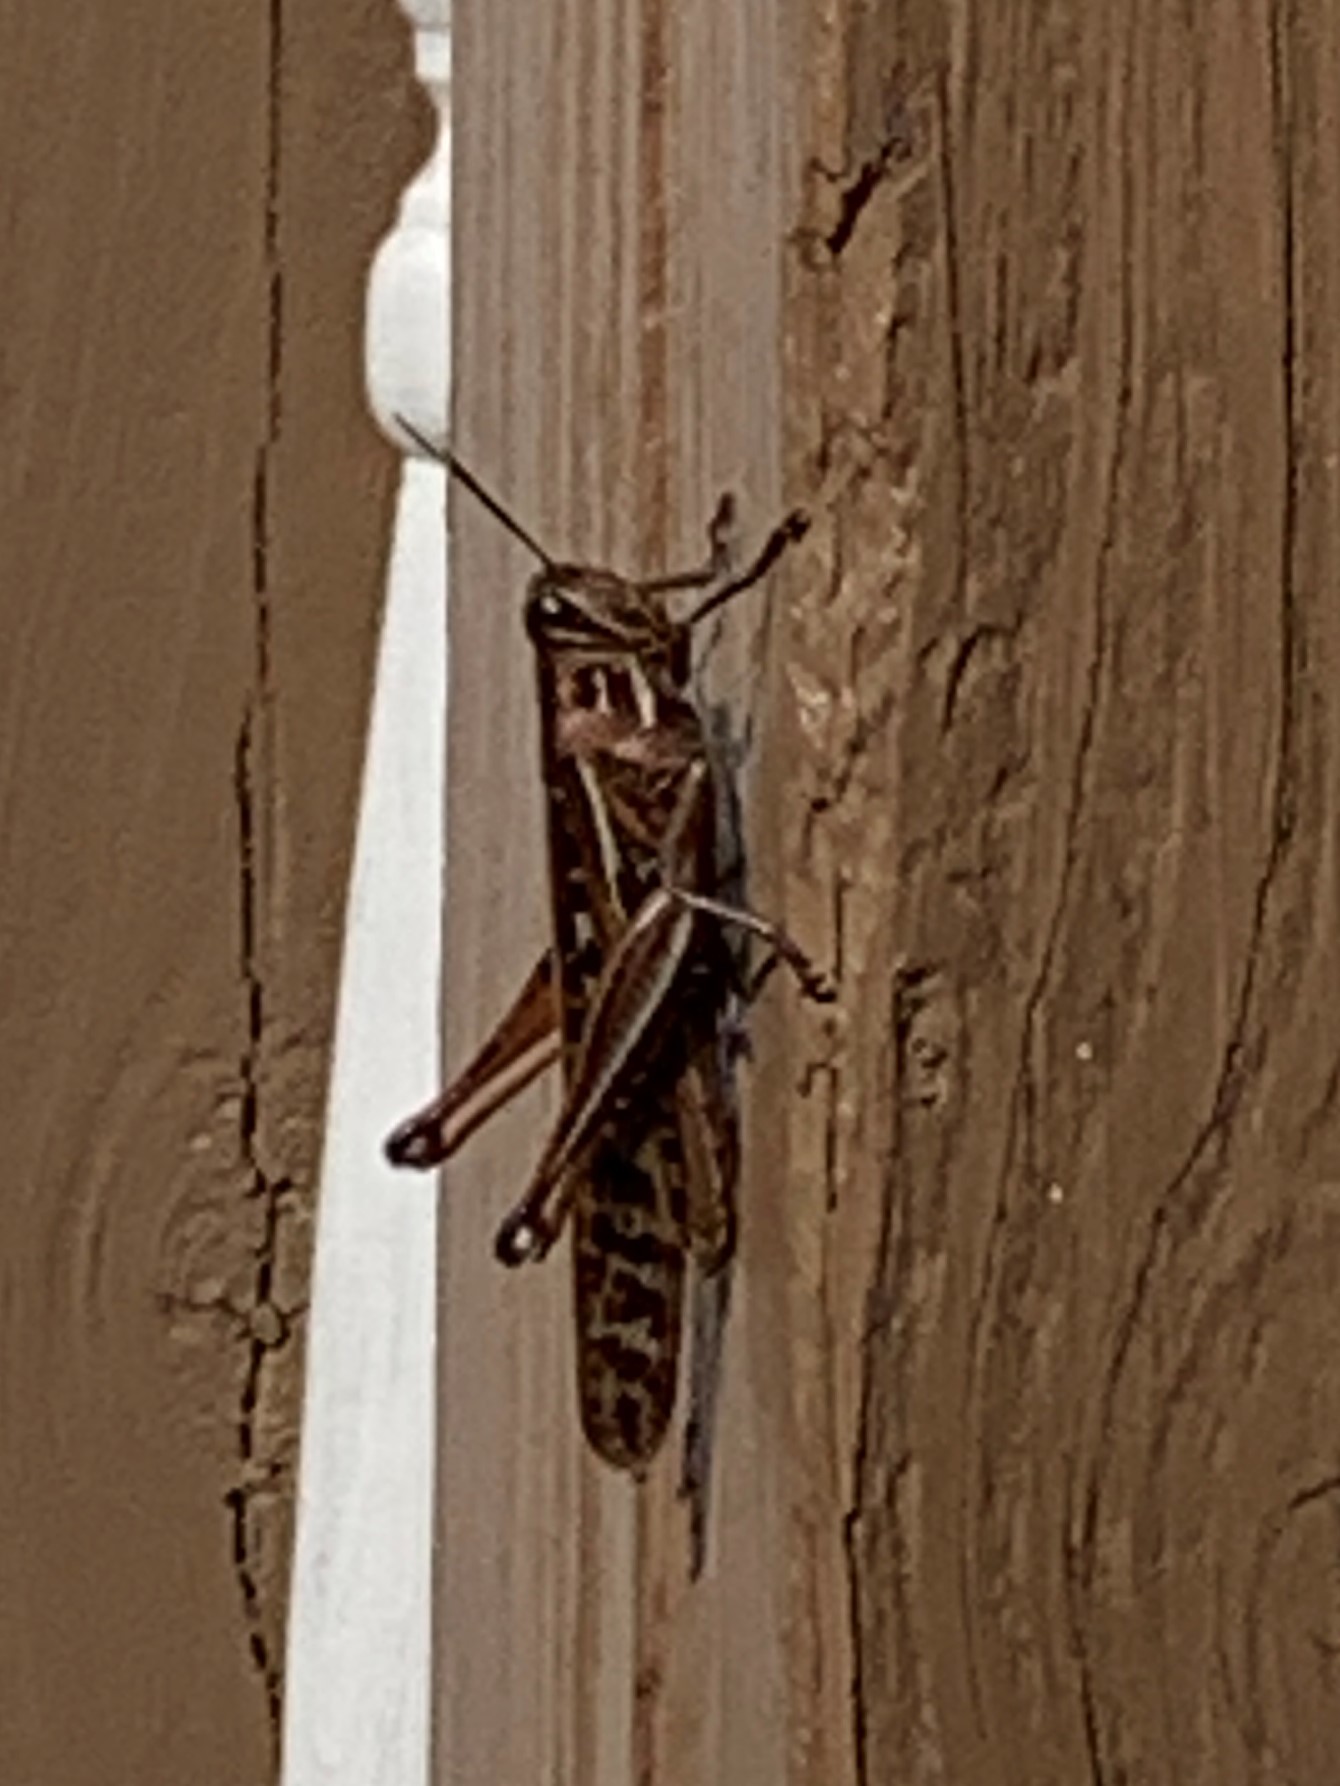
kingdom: Animalia
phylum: Arthropoda
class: Insecta
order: Orthoptera
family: Acrididae
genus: Schistocerca
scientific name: Schistocerca americana
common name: American bird locust
